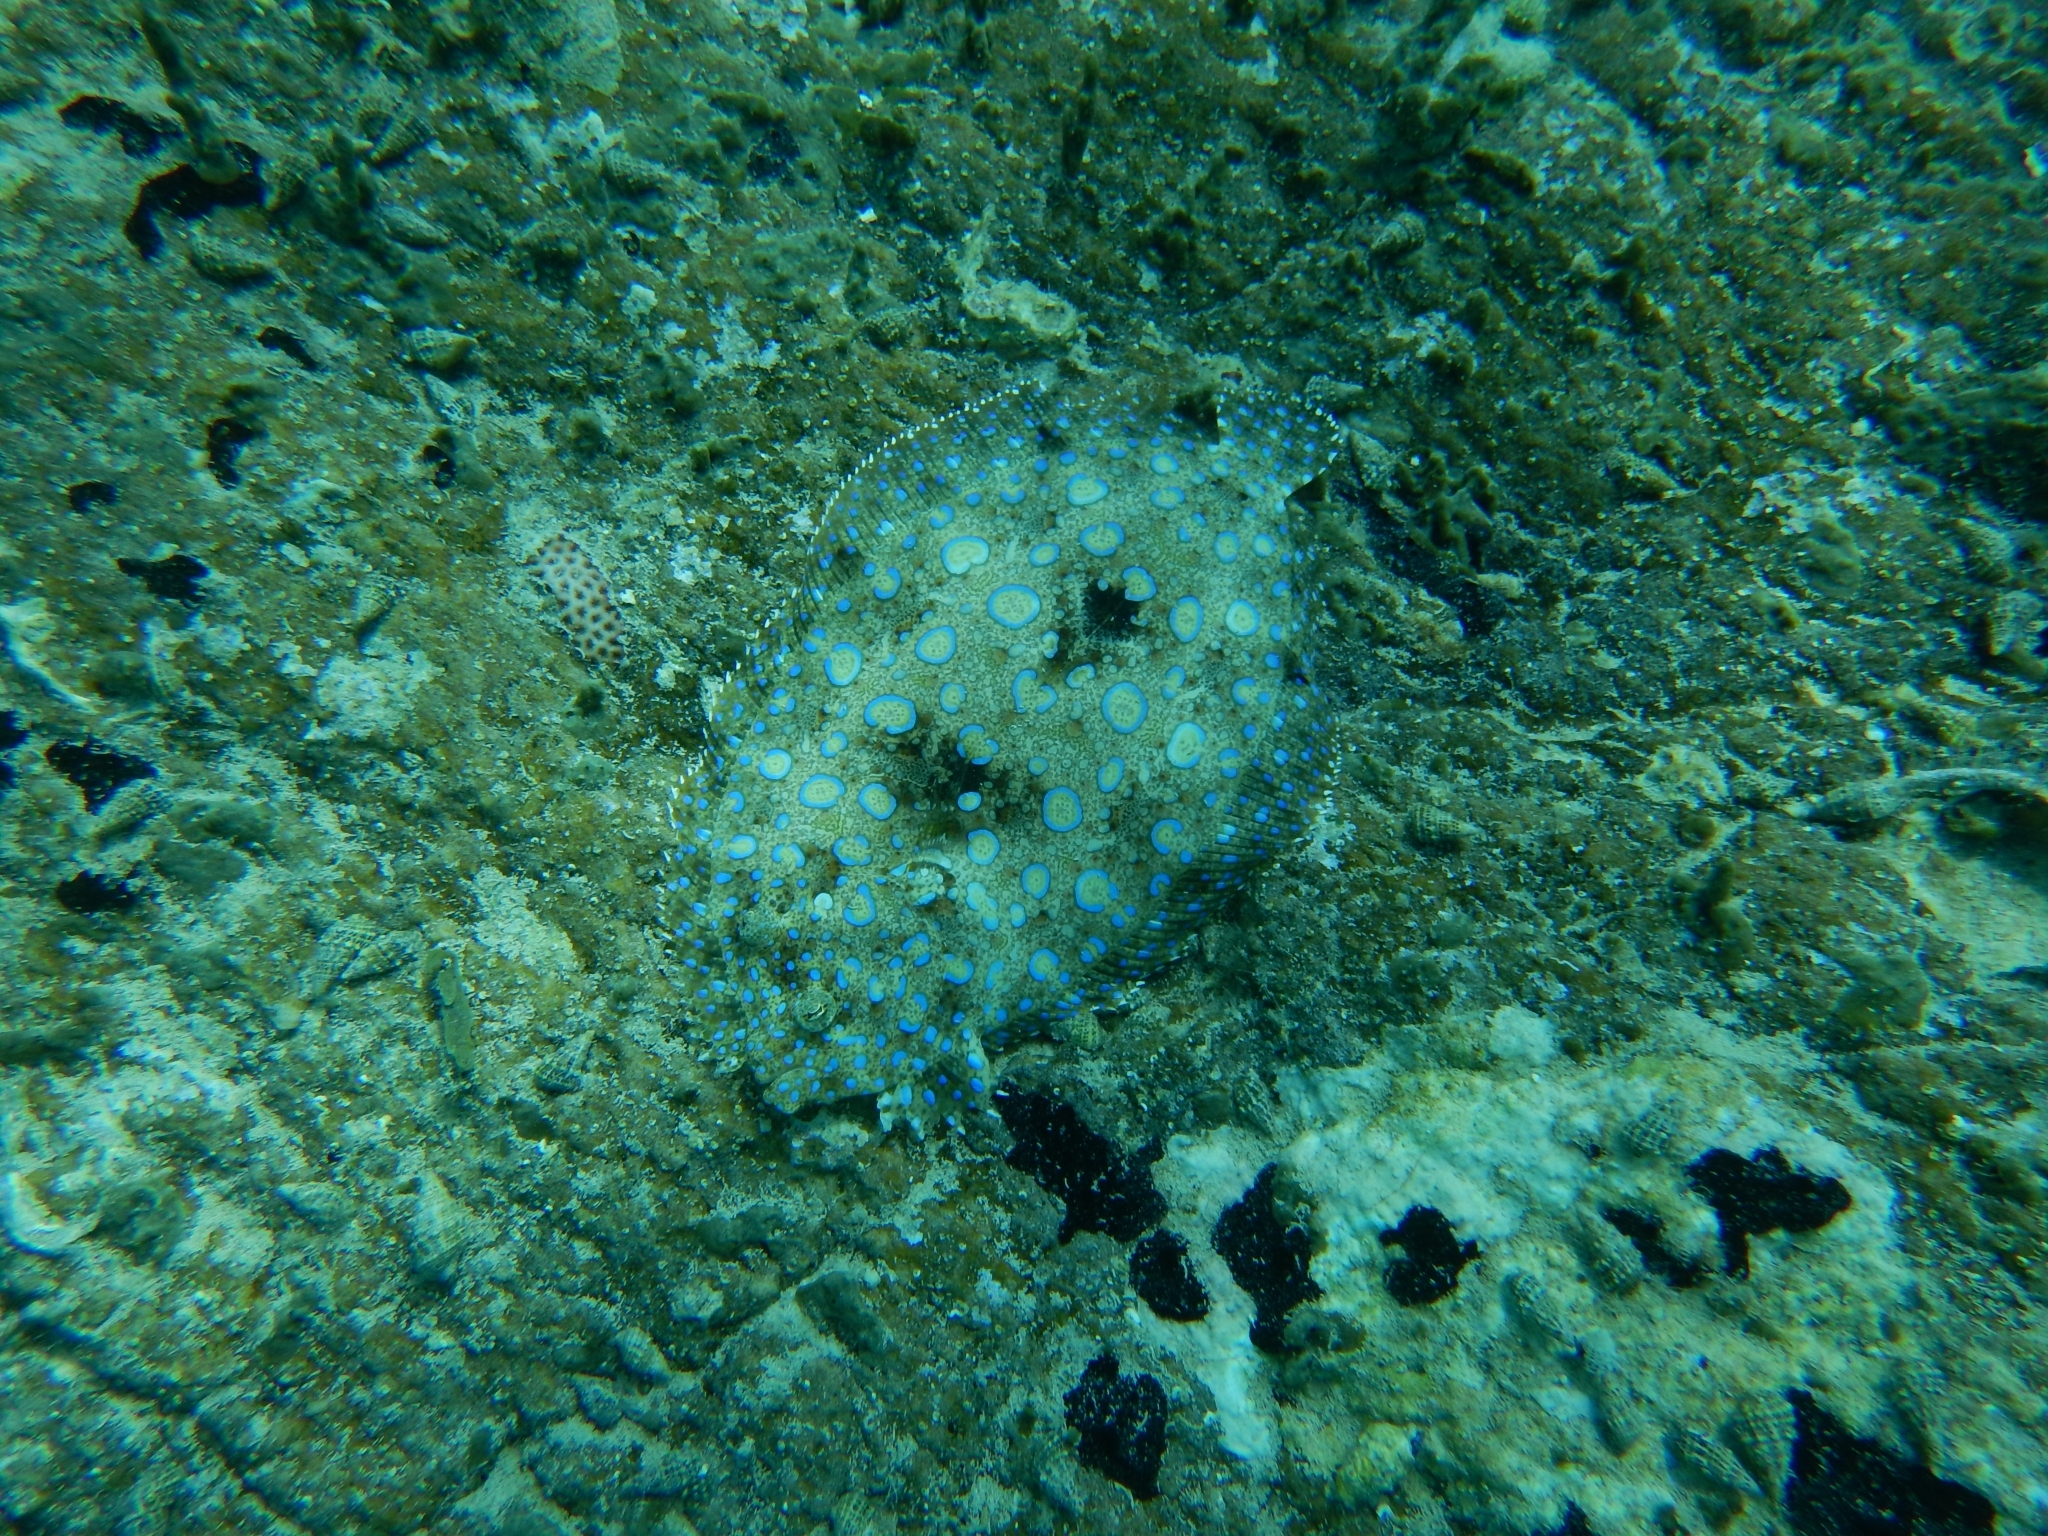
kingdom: Animalia
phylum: Chordata
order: Pleuronectiformes
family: Bothidae
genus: Bothus
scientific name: Bothus lunatus
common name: Peacock flounder
